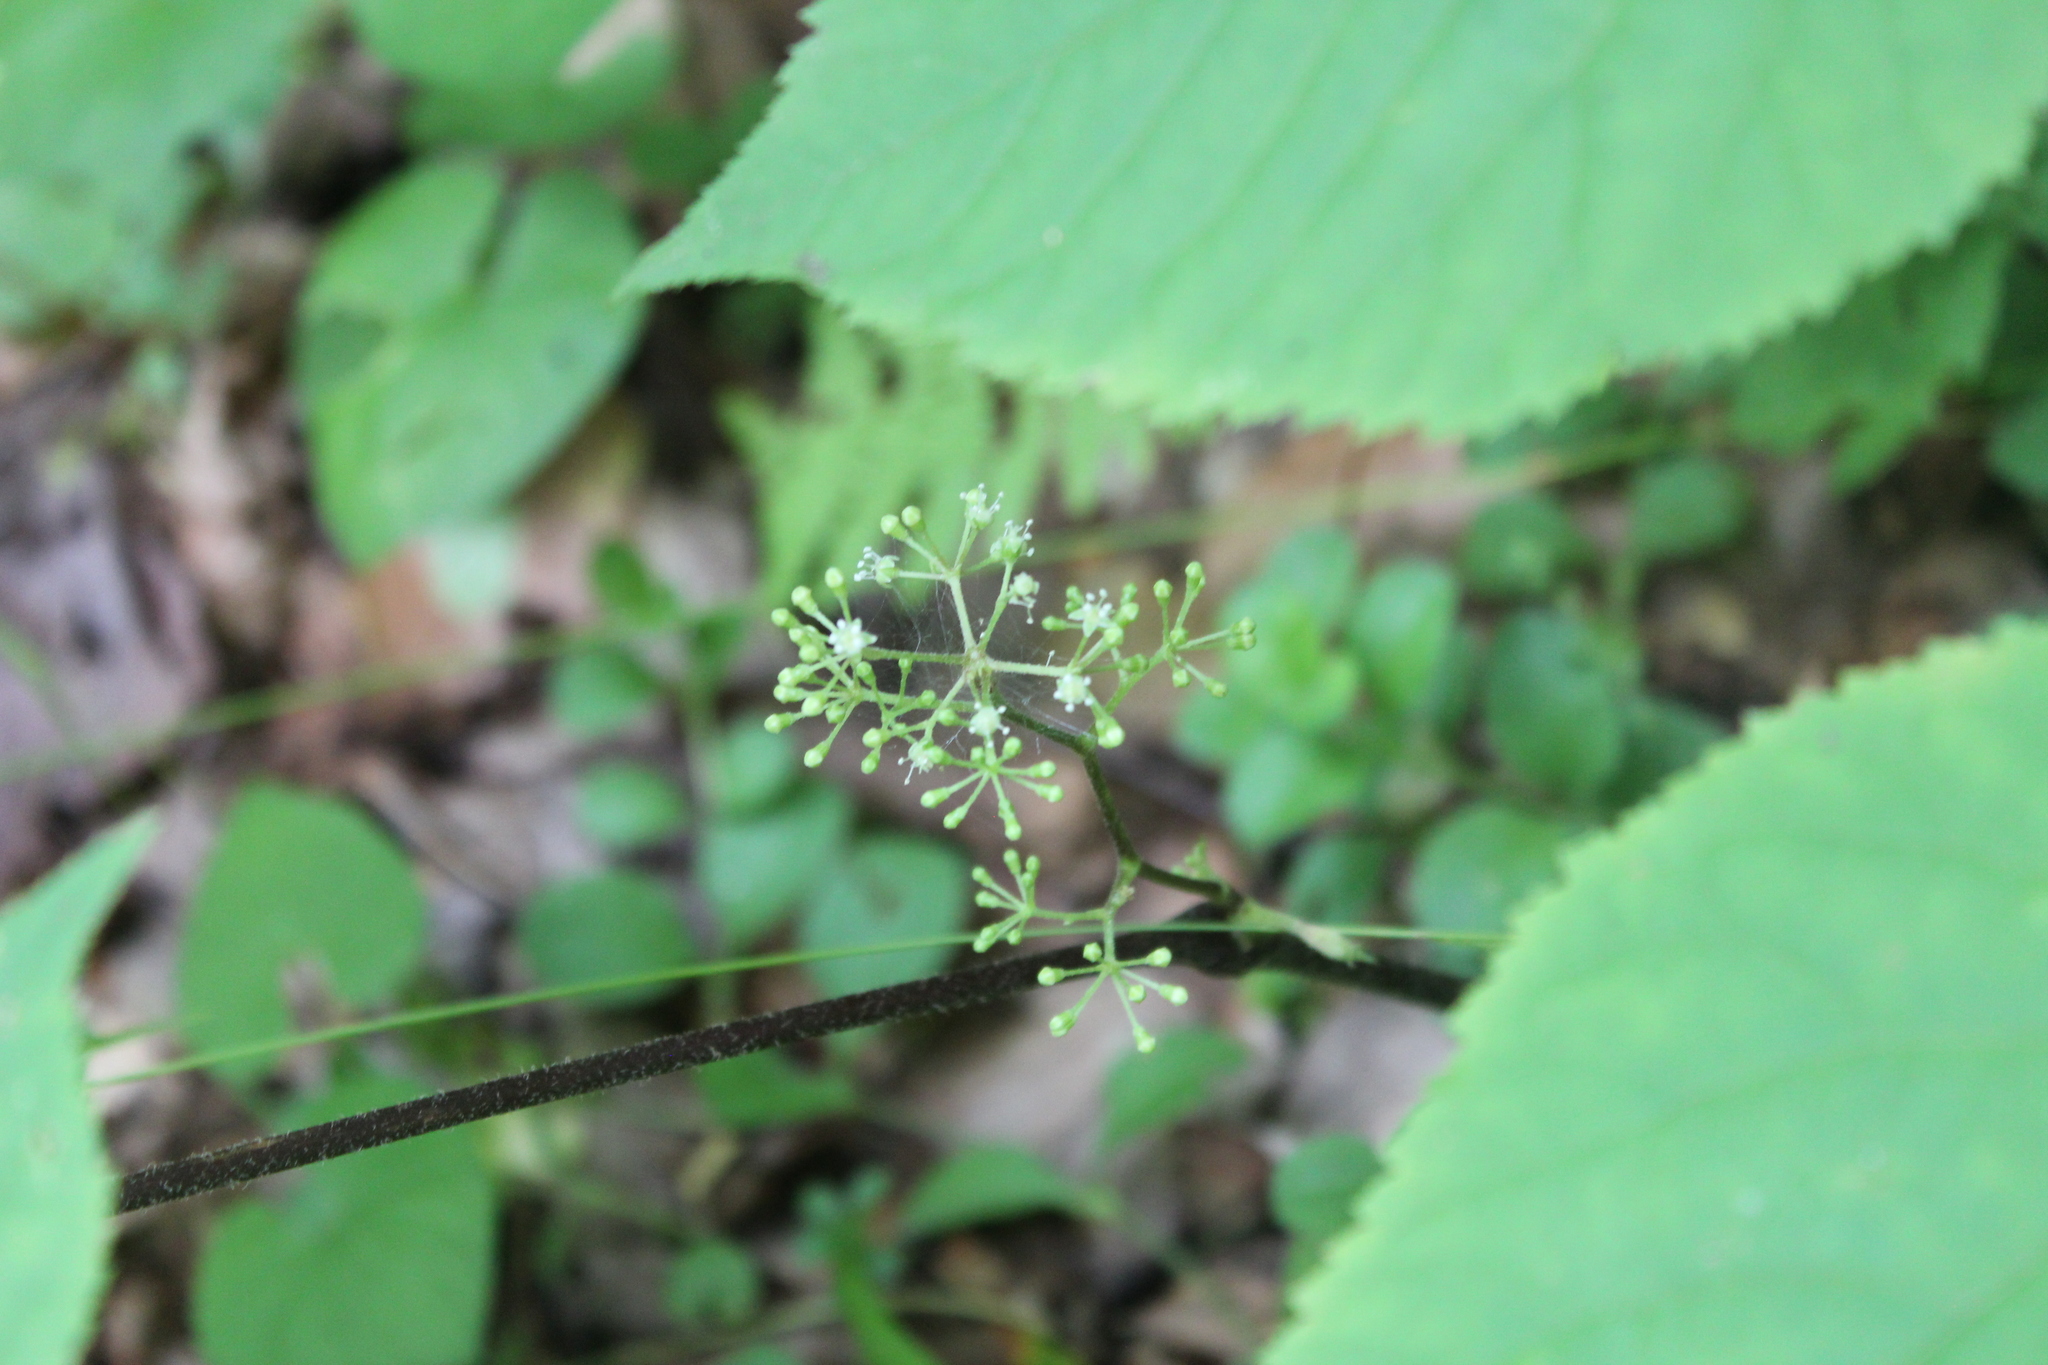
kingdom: Plantae
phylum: Tracheophyta
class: Magnoliopsida
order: Apiales
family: Araliaceae
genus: Aralia
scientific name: Aralia racemosa
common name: American-spikenard
